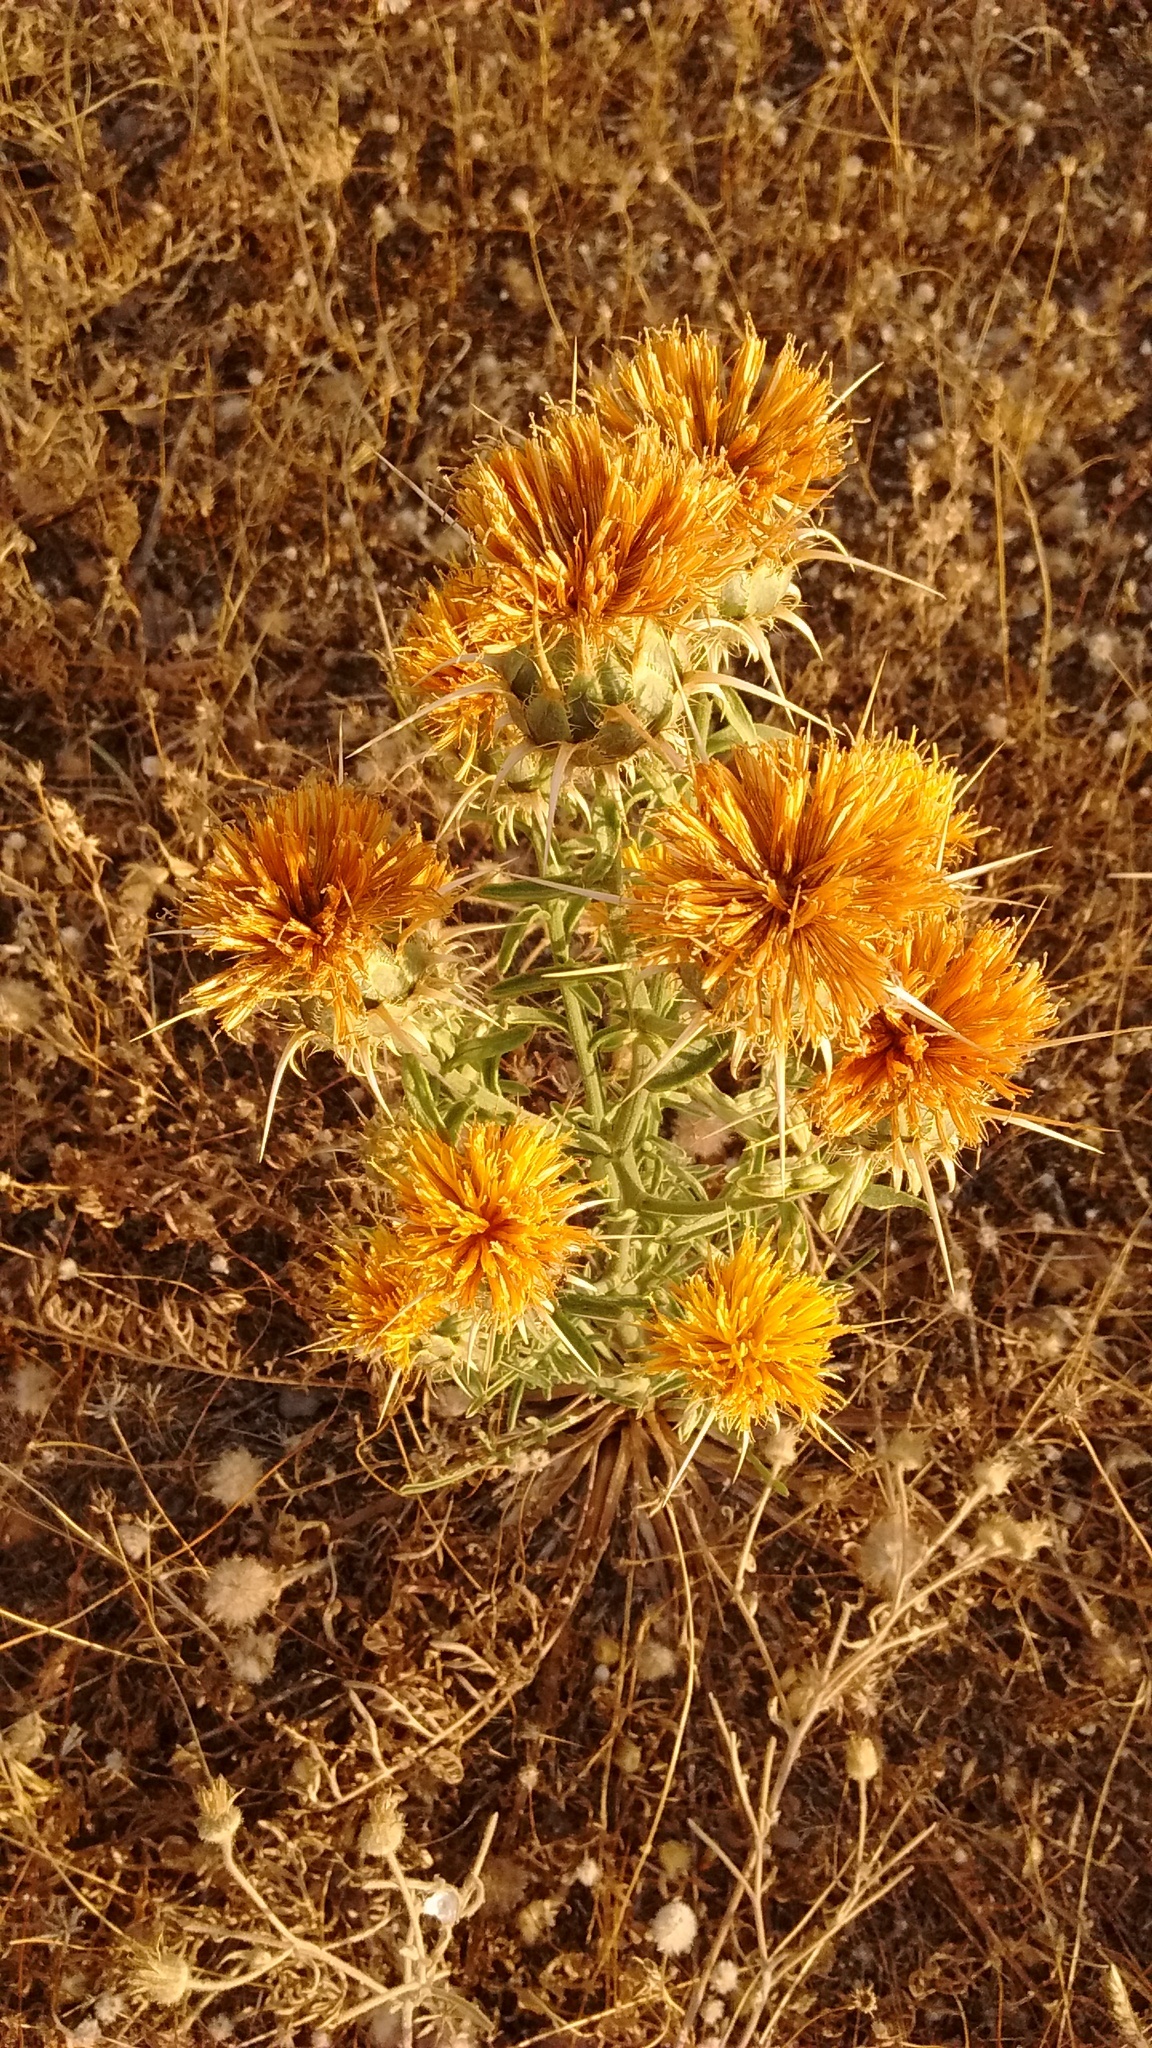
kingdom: Plantae
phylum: Tracheophyta
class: Magnoliopsida
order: Asterales
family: Asteraceae
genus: Centaurea
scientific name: Centaurea ornata
